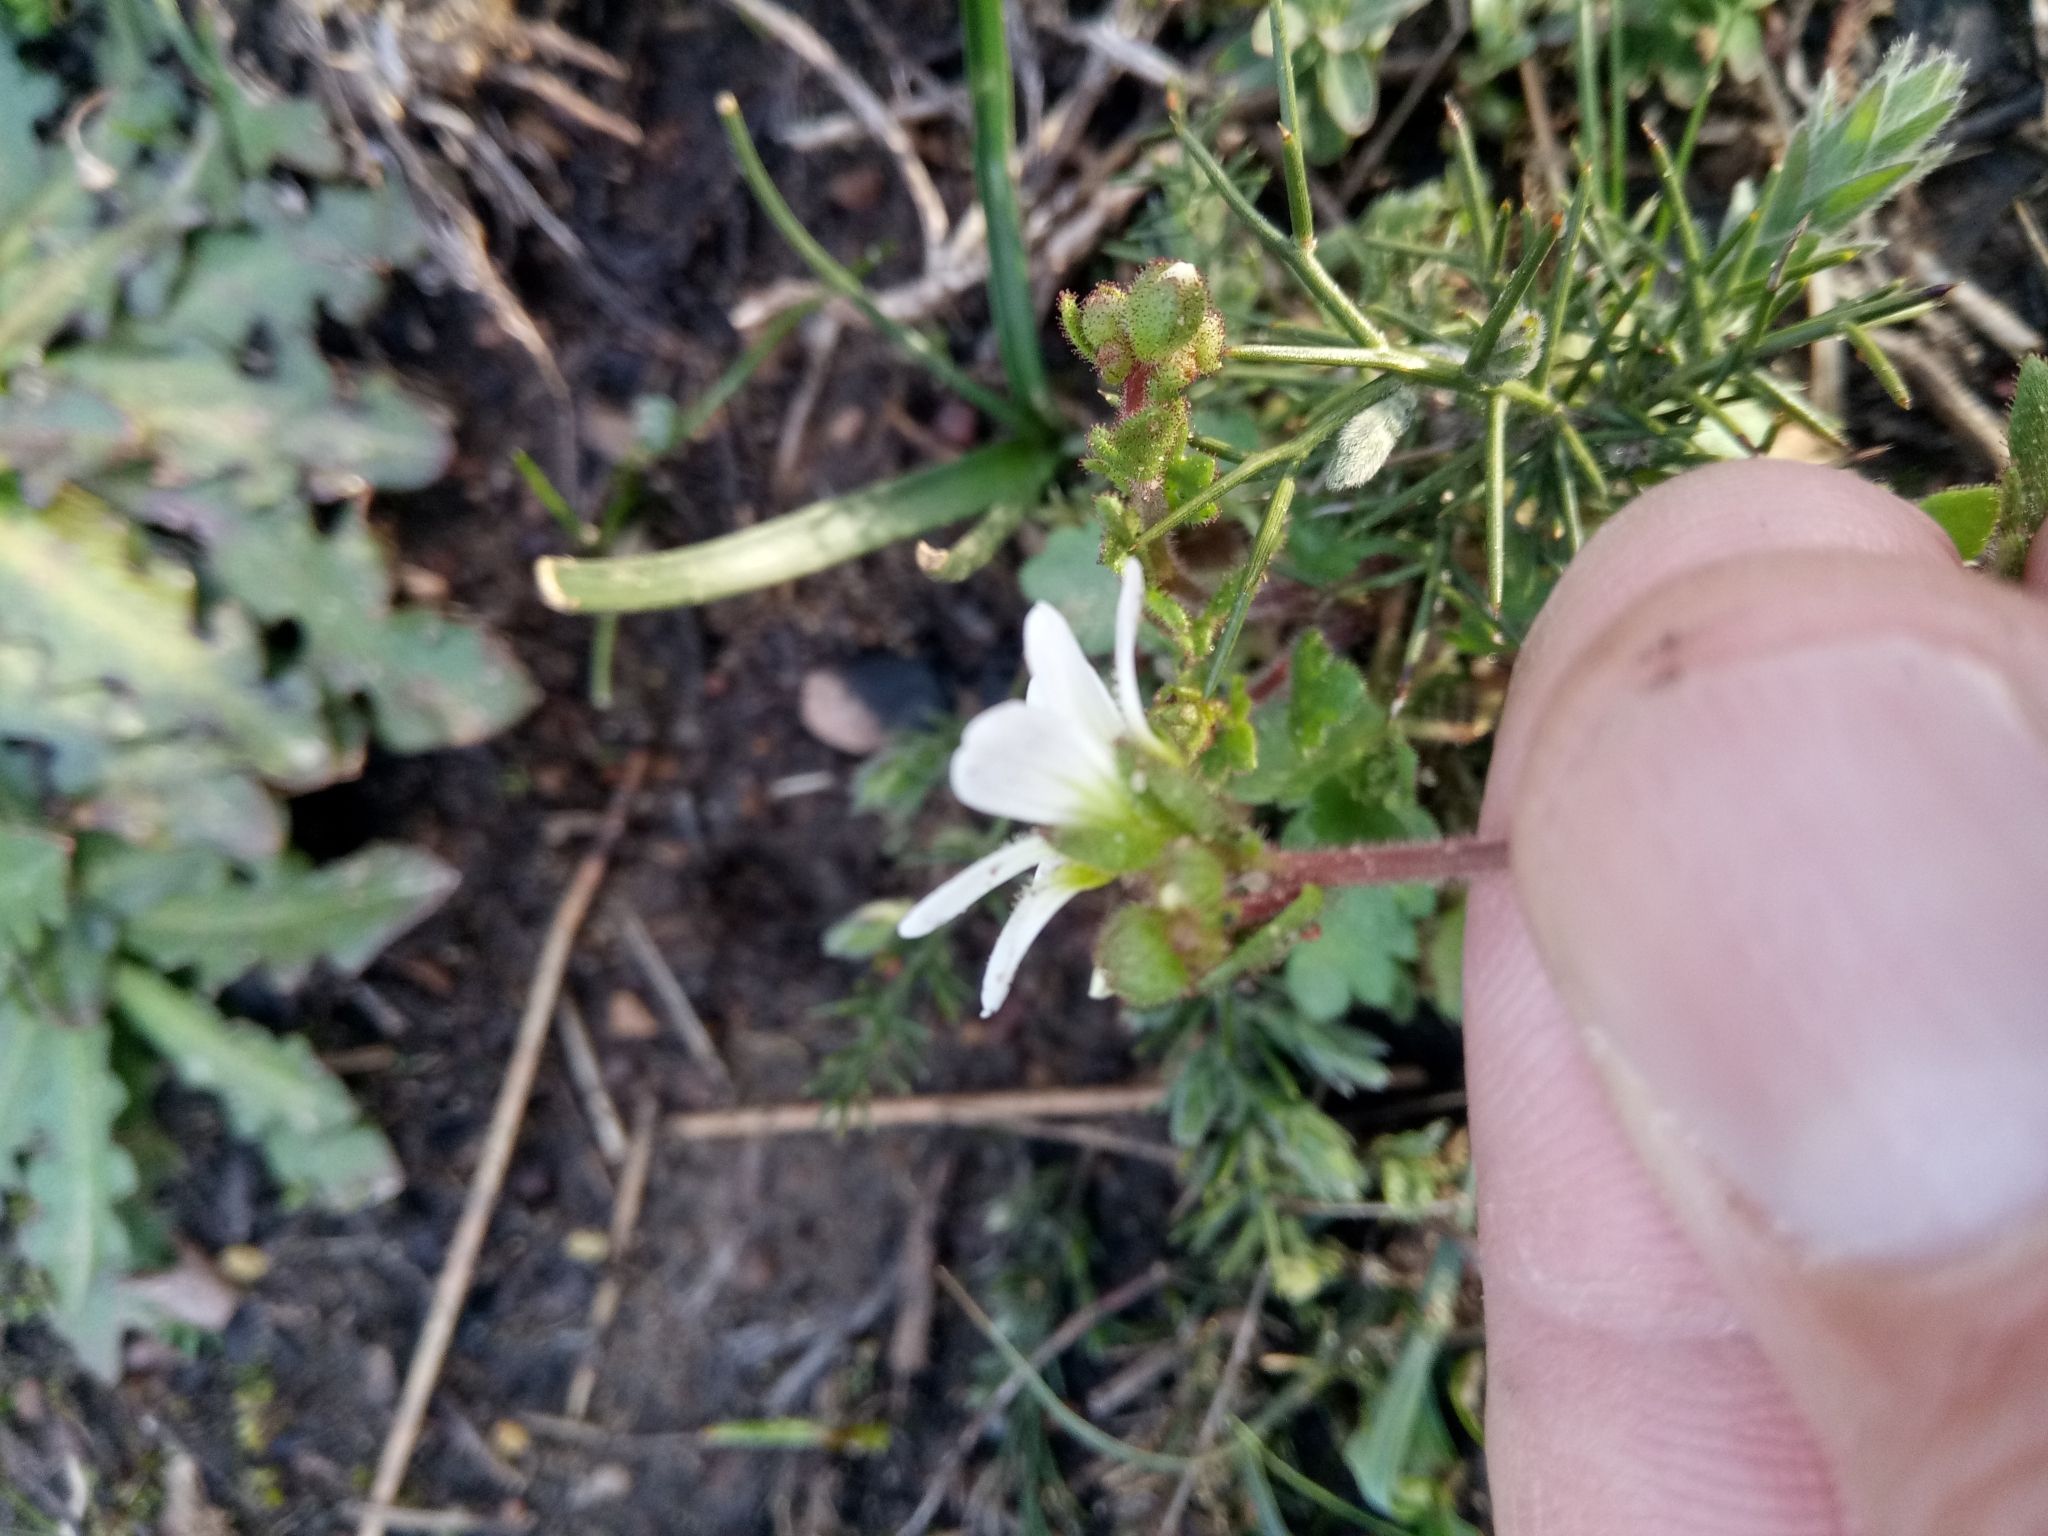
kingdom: Plantae
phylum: Tracheophyta
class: Magnoliopsida
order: Saxifragales
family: Saxifragaceae
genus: Saxifraga
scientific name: Saxifraga carpetana
